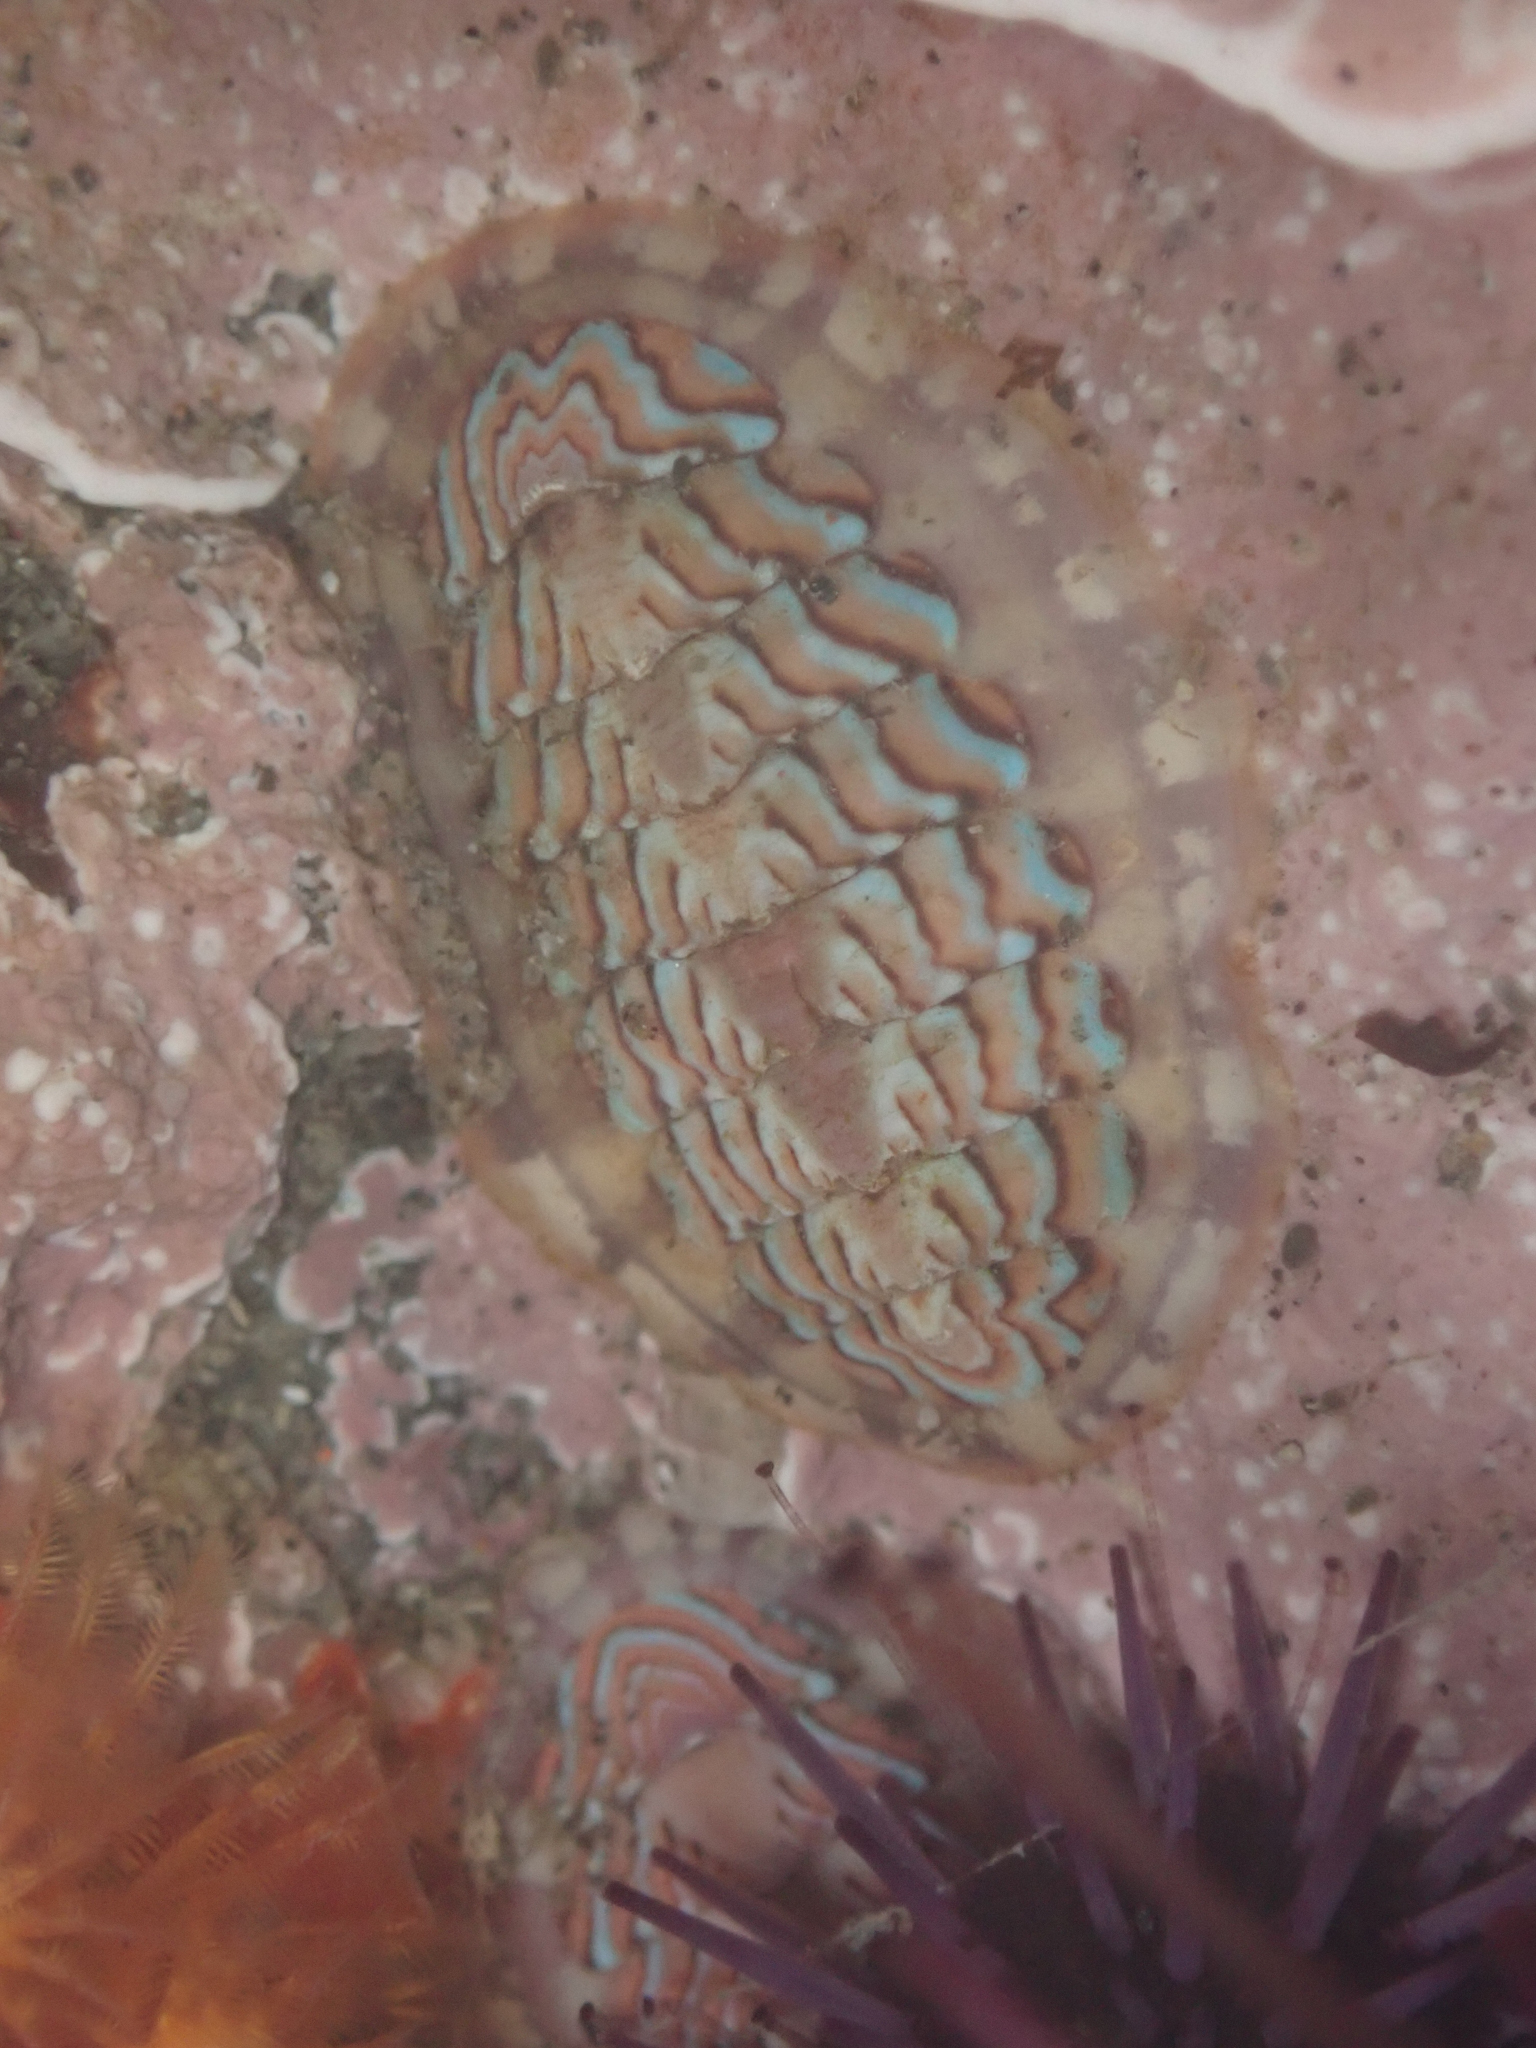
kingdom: Animalia
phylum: Mollusca
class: Polyplacophora
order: Chitonida
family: Tonicellidae
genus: Tonicella
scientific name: Tonicella lokii
